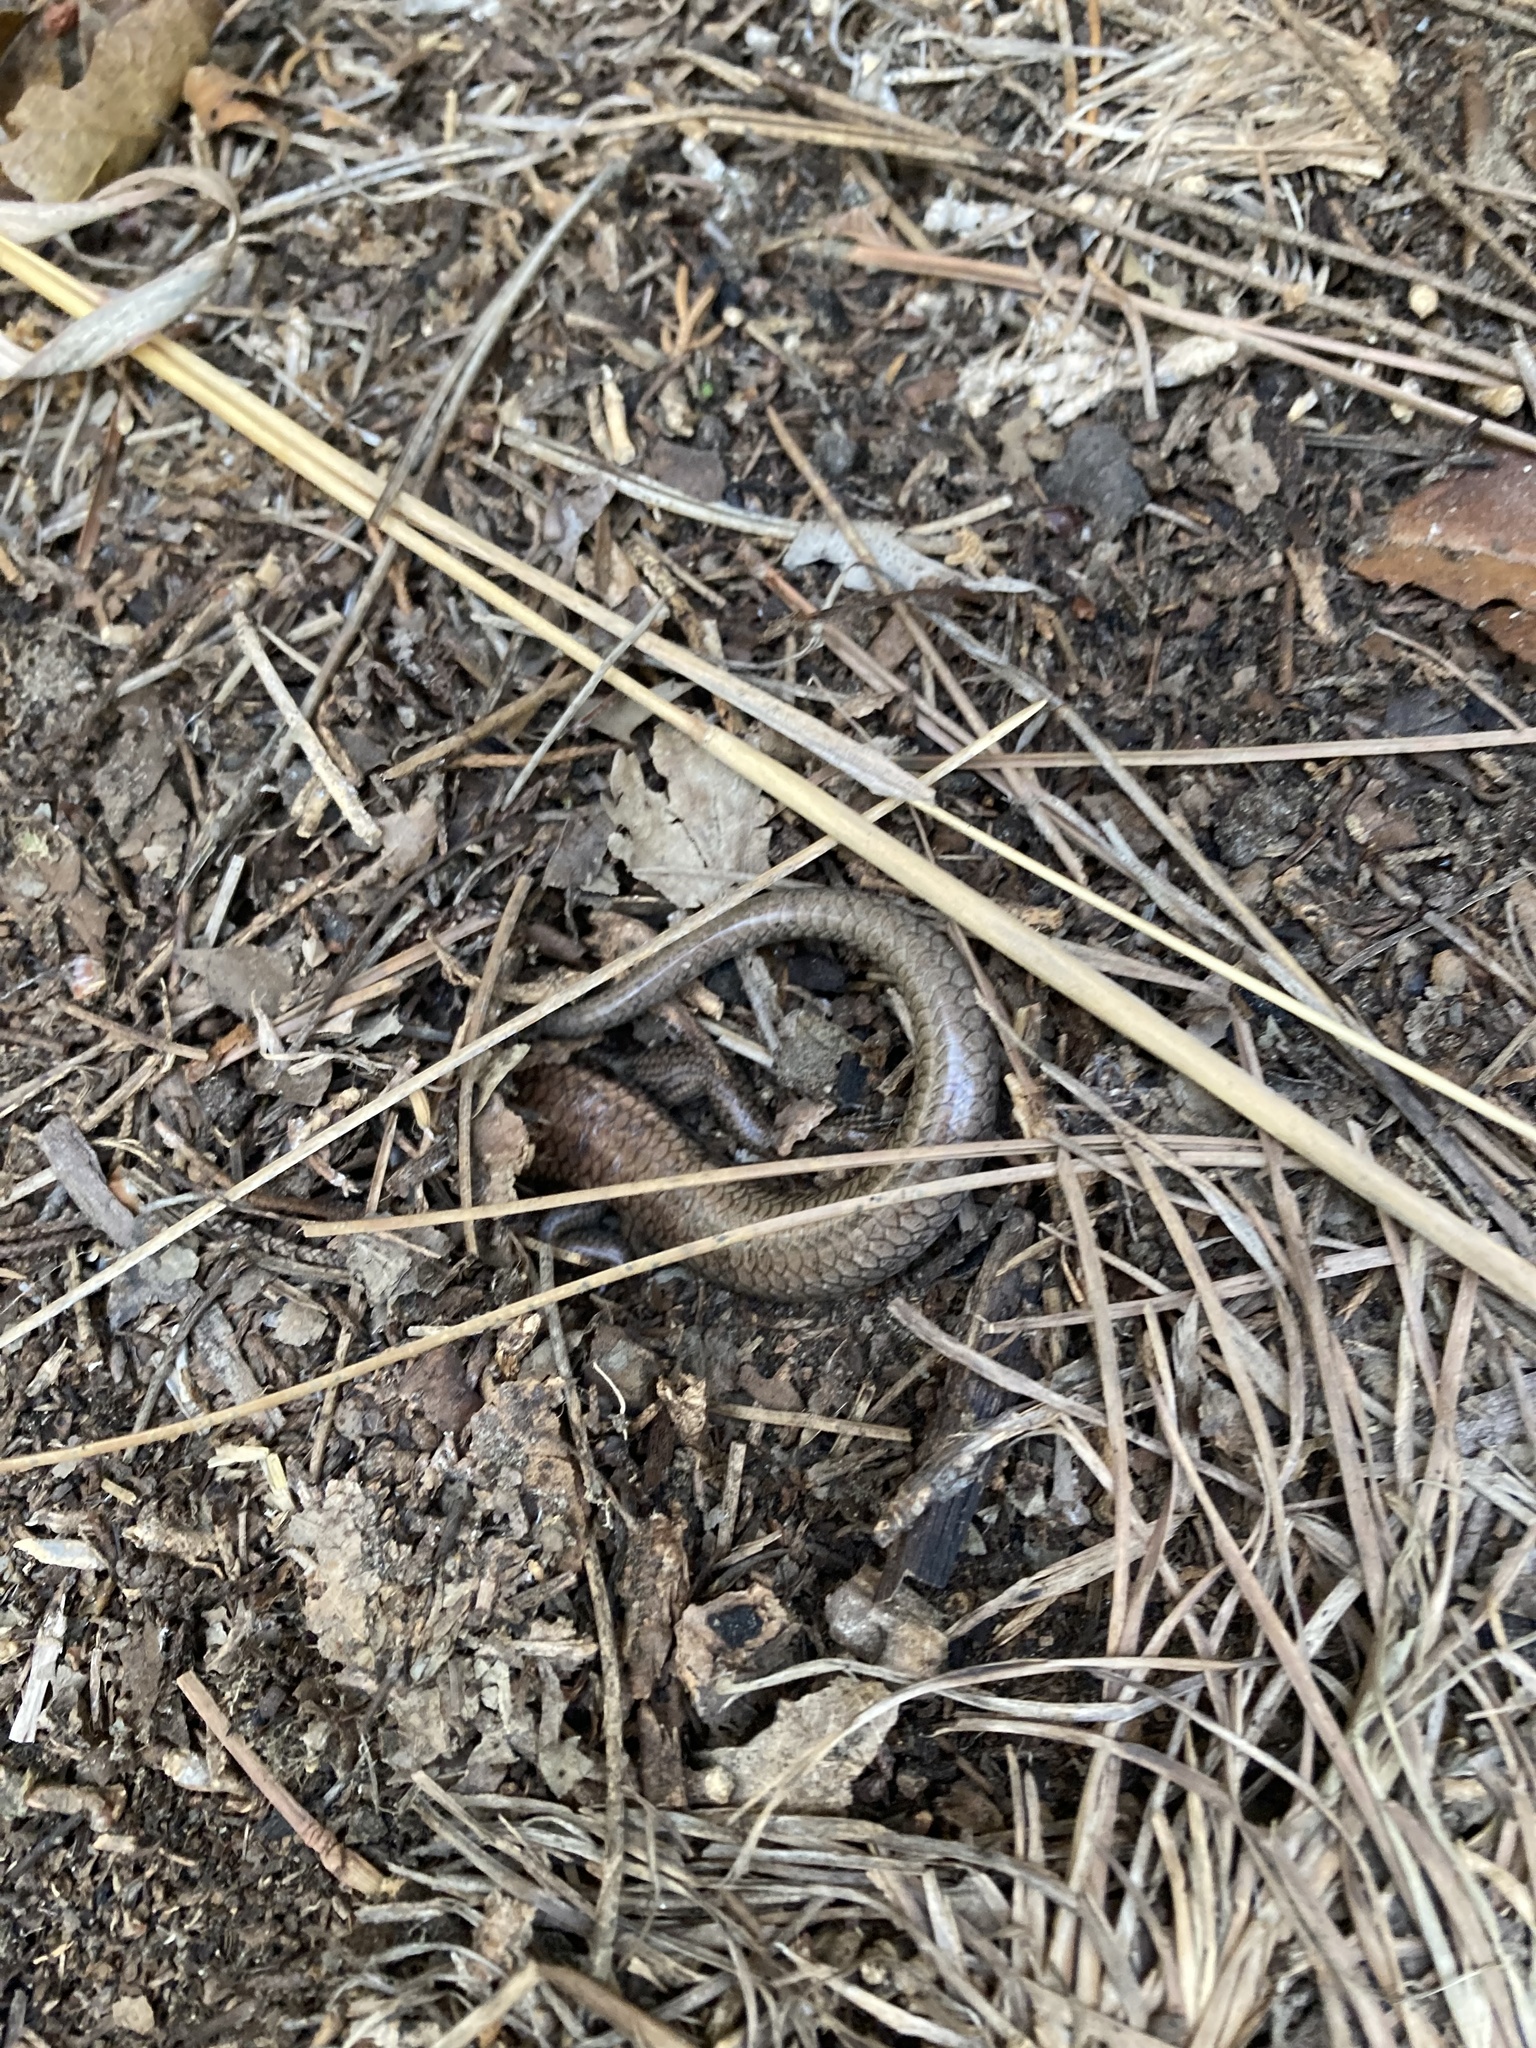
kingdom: Animalia
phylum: Chordata
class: Squamata
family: Scincidae
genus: Plestiodon
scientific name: Plestiodon fasciatus
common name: Five-lined skink
